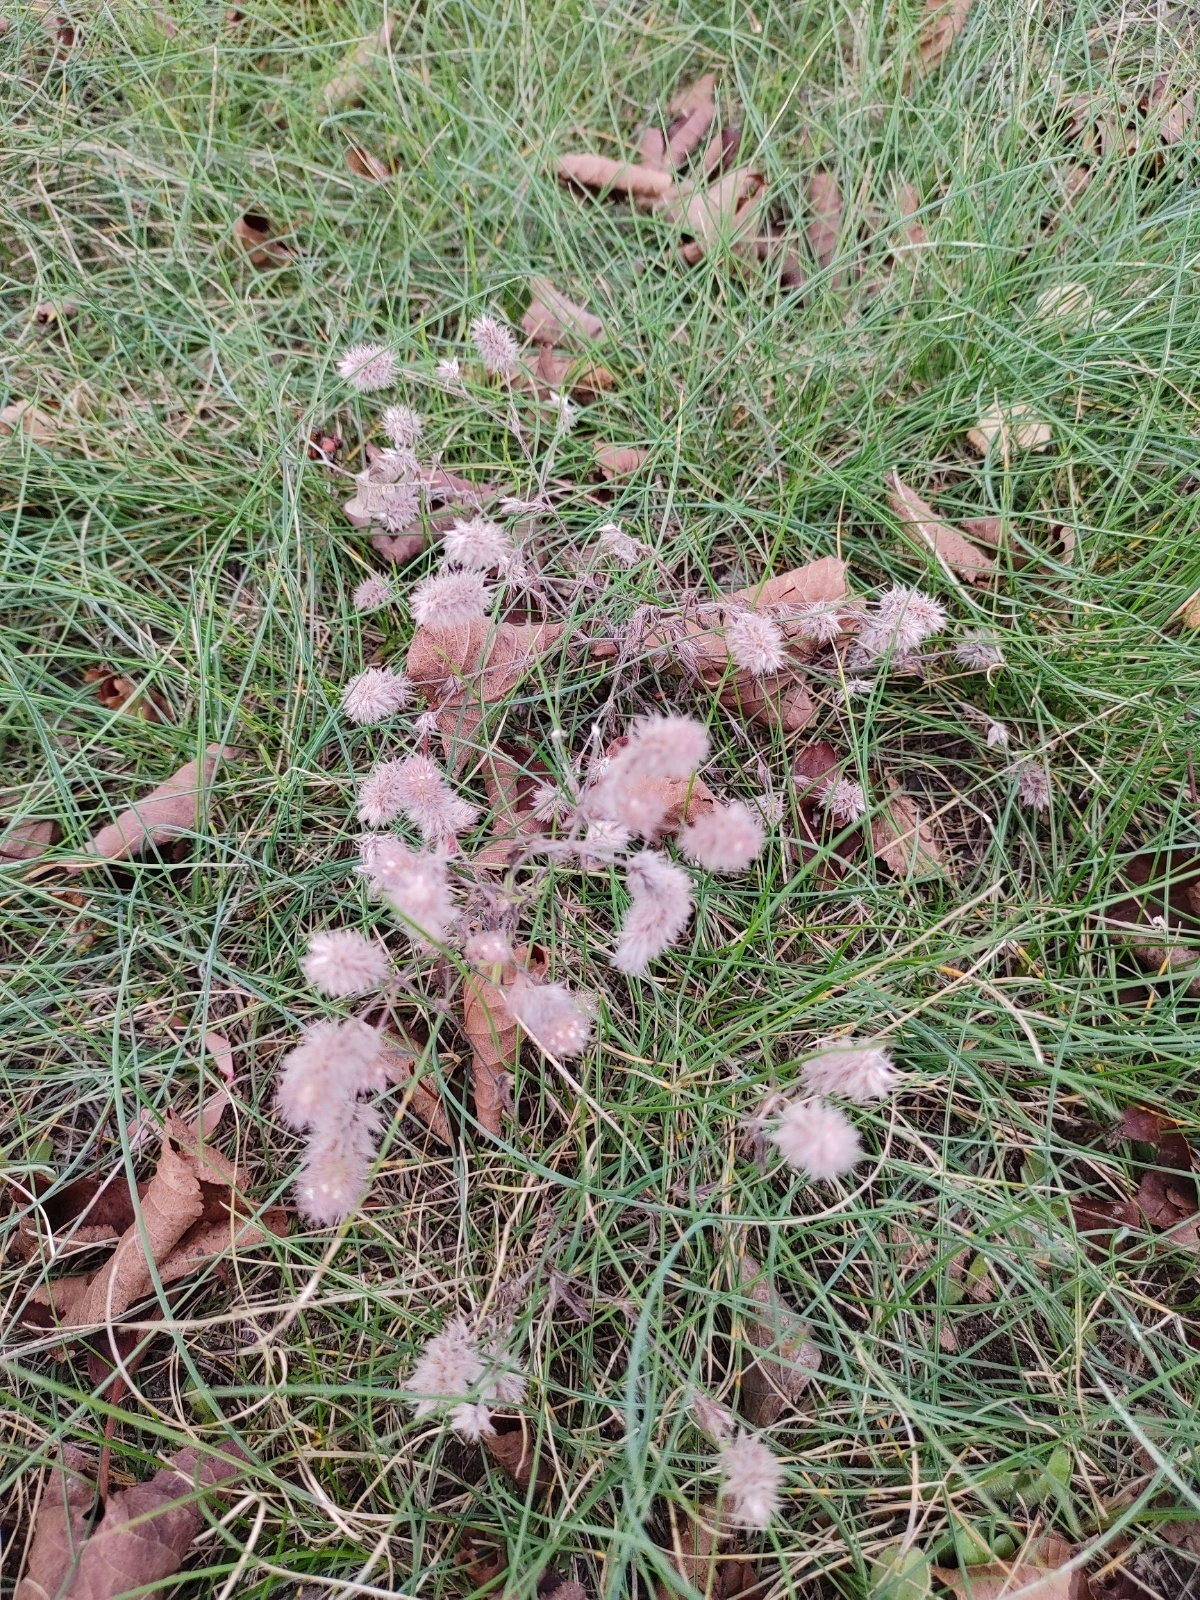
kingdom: Plantae
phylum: Tracheophyta
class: Magnoliopsida
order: Fabales
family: Fabaceae
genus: Trifolium
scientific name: Trifolium arvense
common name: Hare's-foot clover
